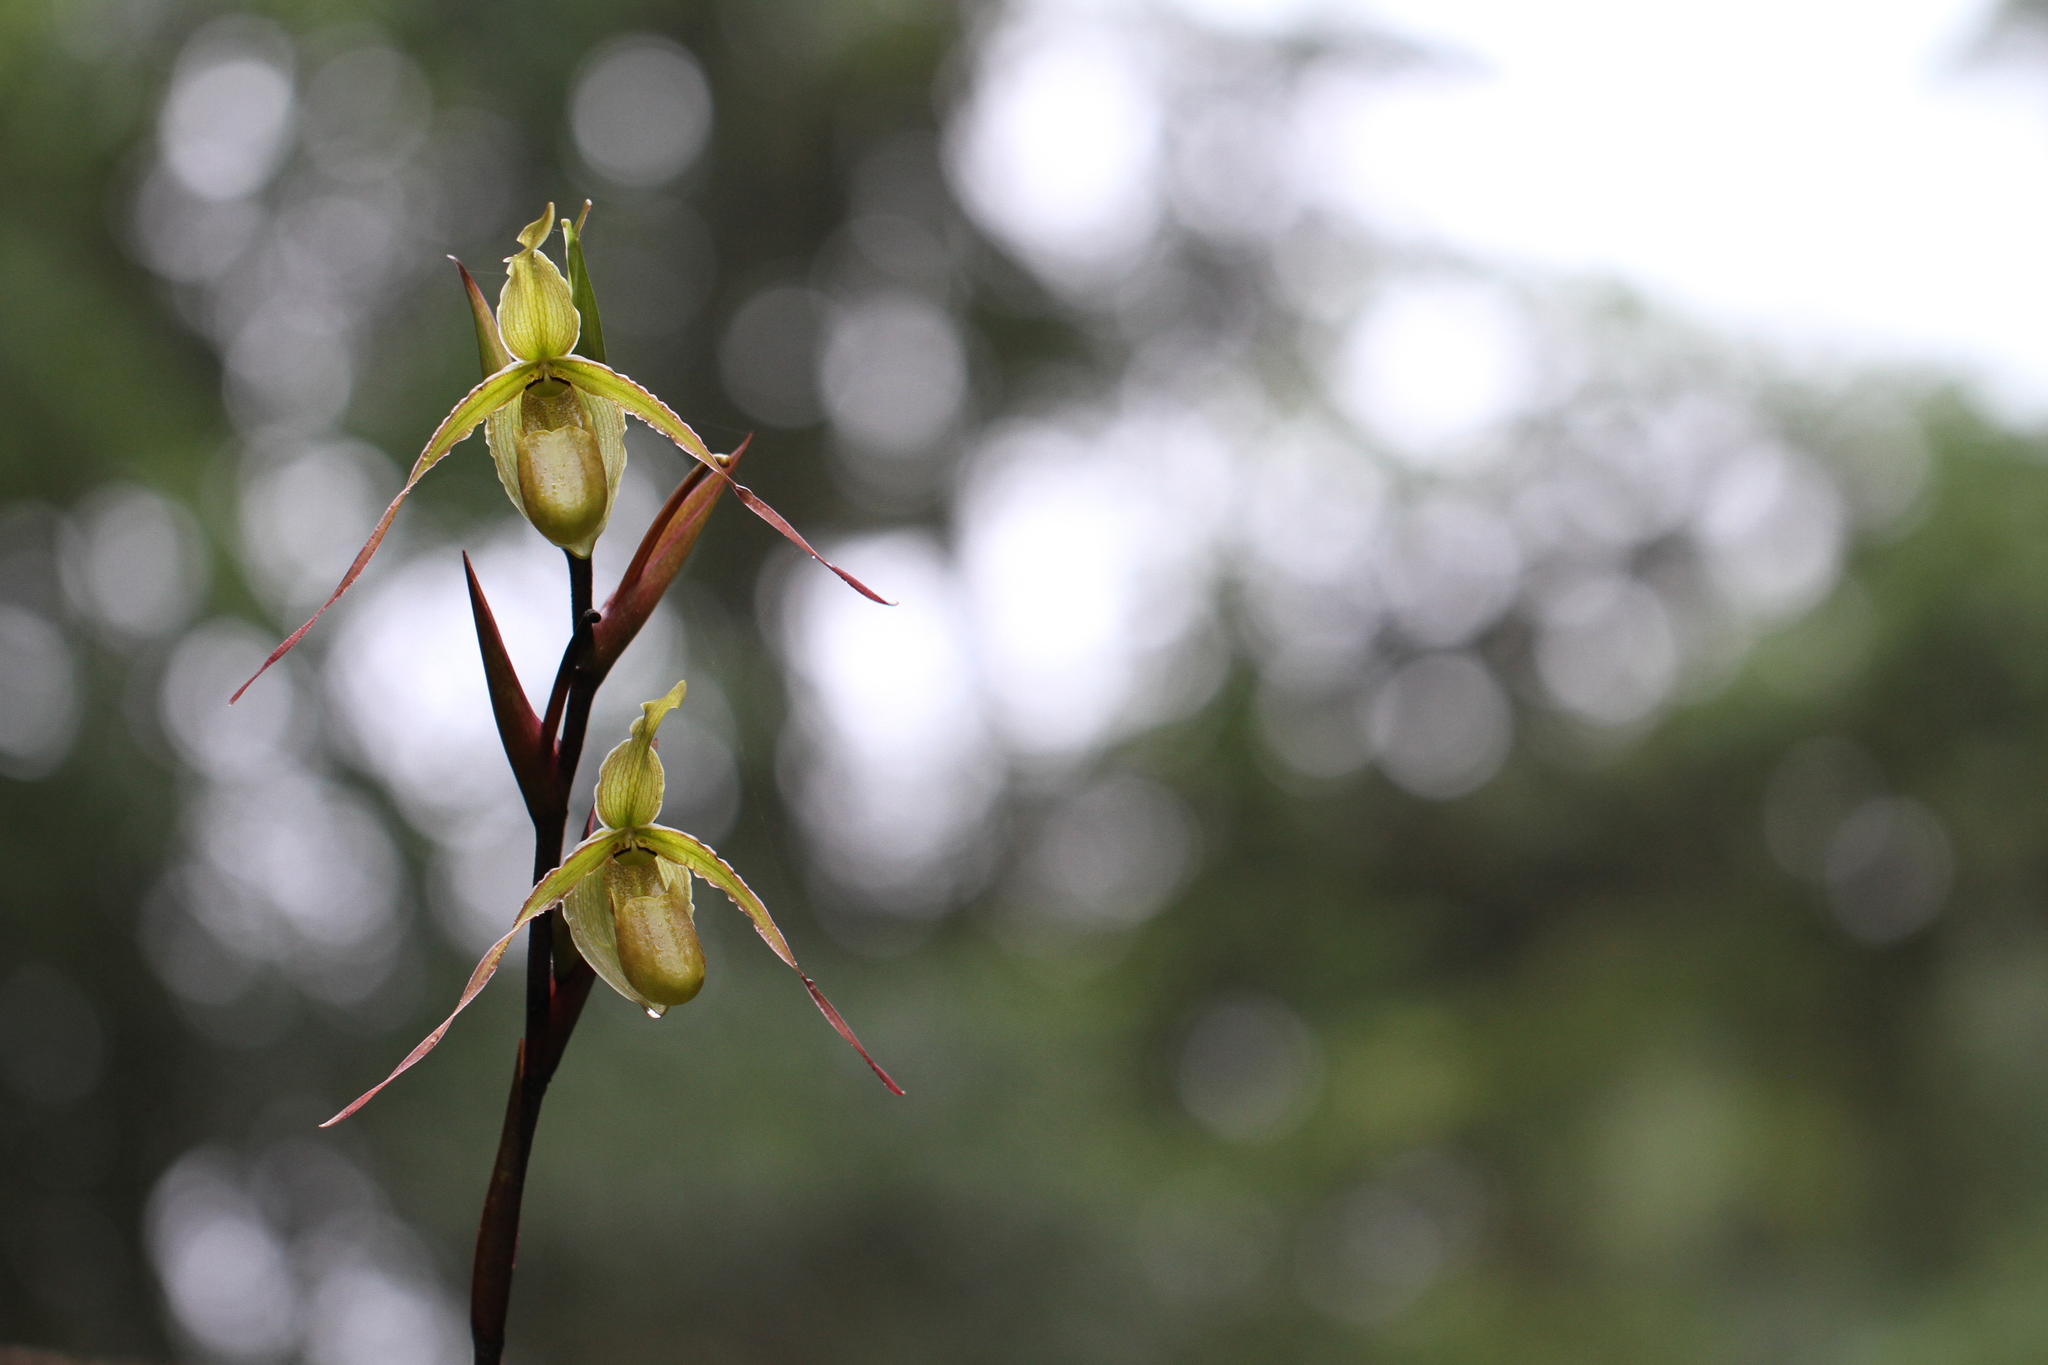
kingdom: Plantae
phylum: Tracheophyta
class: Liliopsida
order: Asparagales
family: Orchidaceae
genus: Phragmipedium
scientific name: Phragmipedium longifolium
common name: Long-leaf phragmipedium
